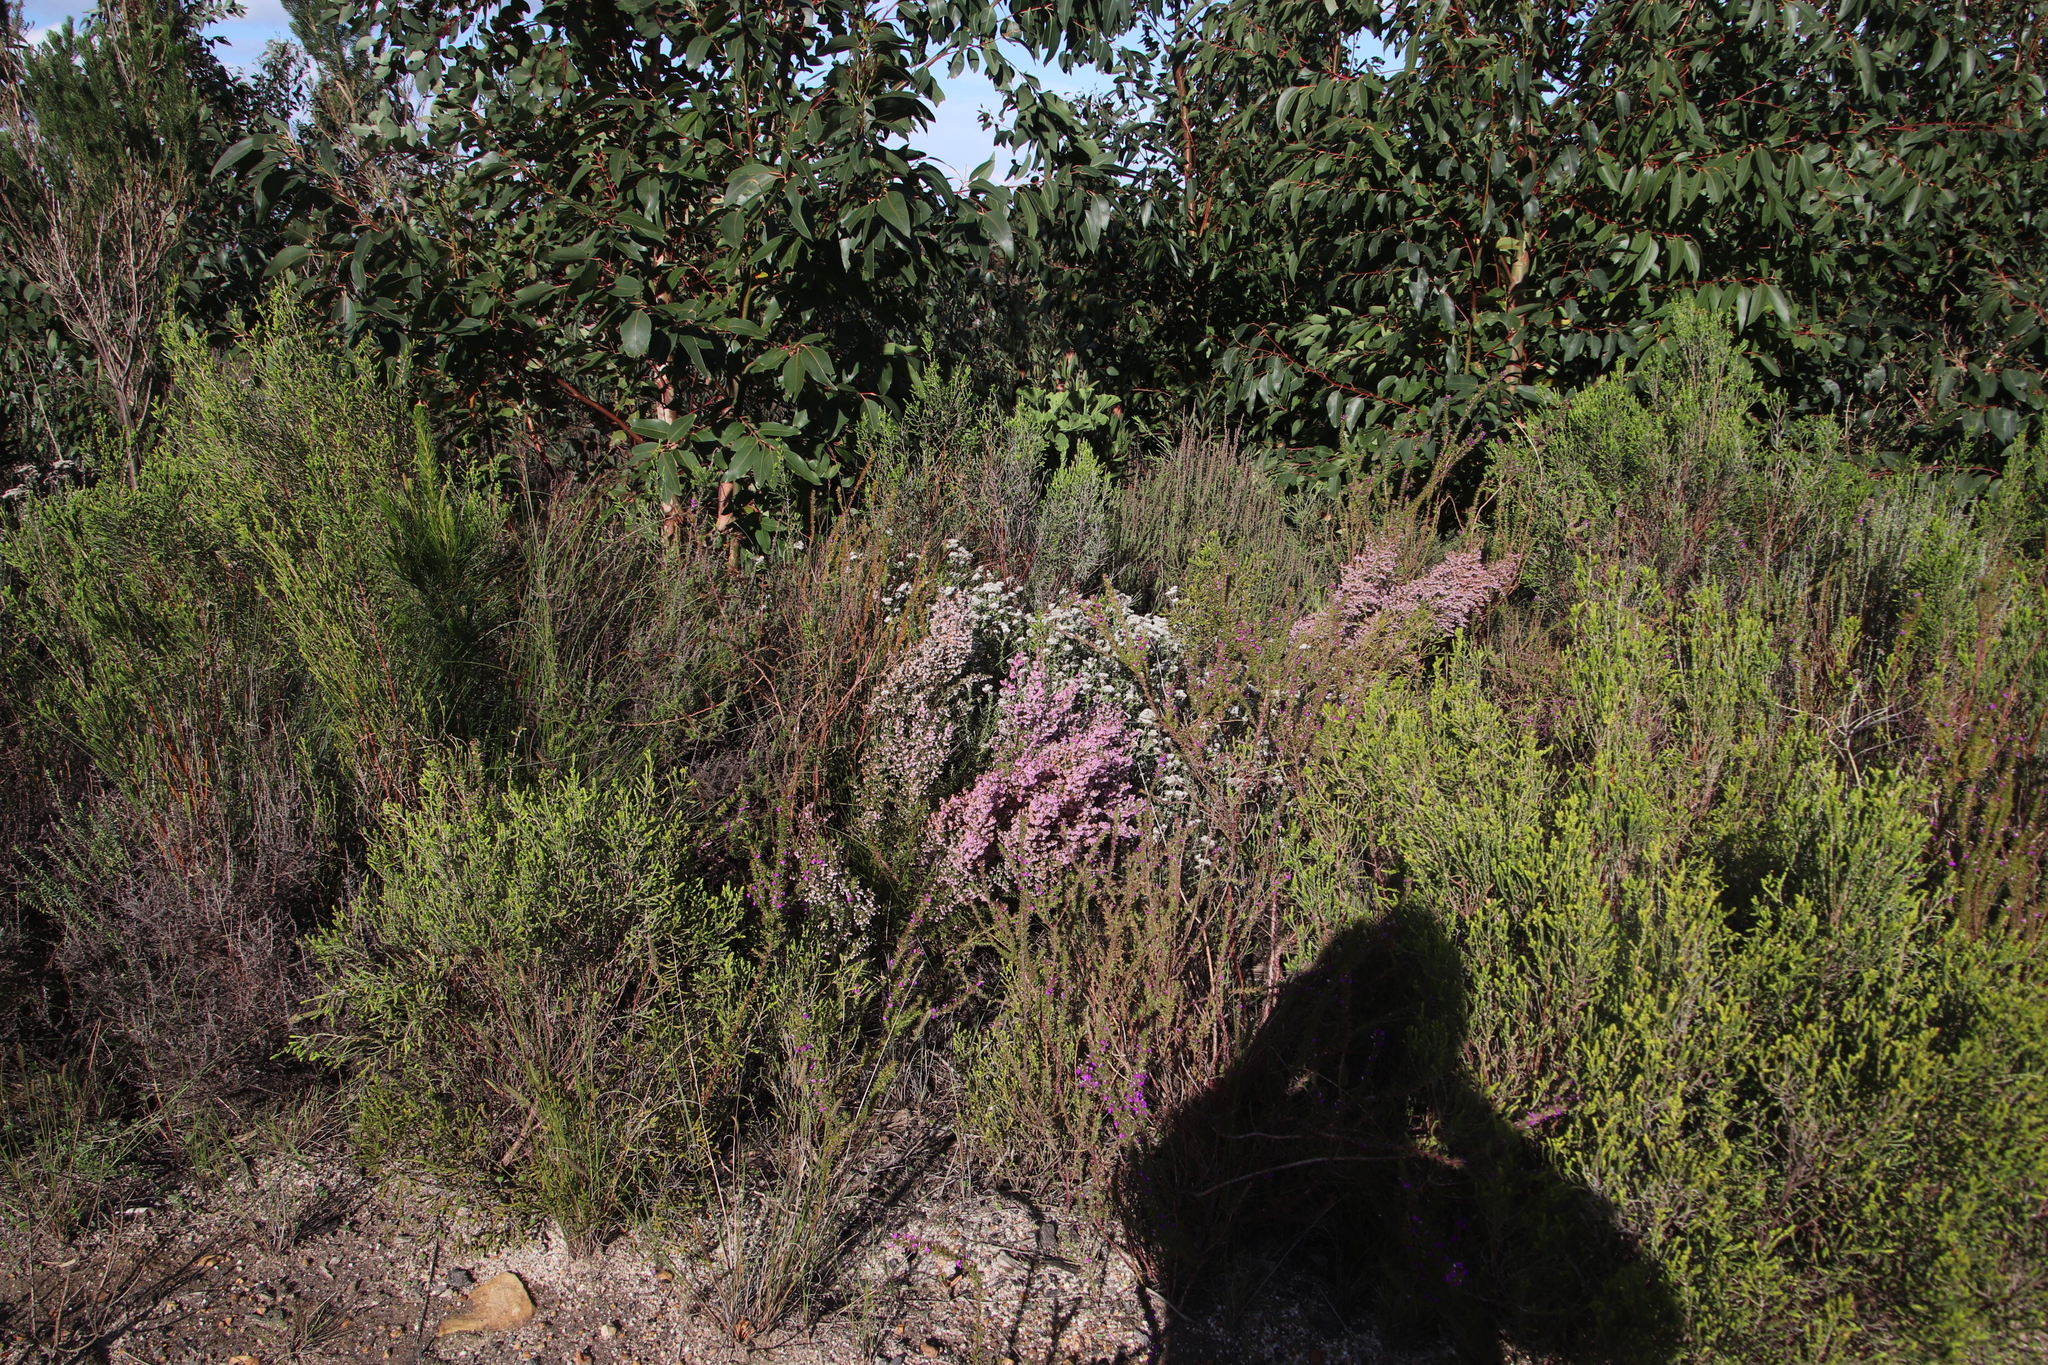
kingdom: Plantae
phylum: Tracheophyta
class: Magnoliopsida
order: Ericales
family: Ericaceae
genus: Erica
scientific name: Erica mauritanica
